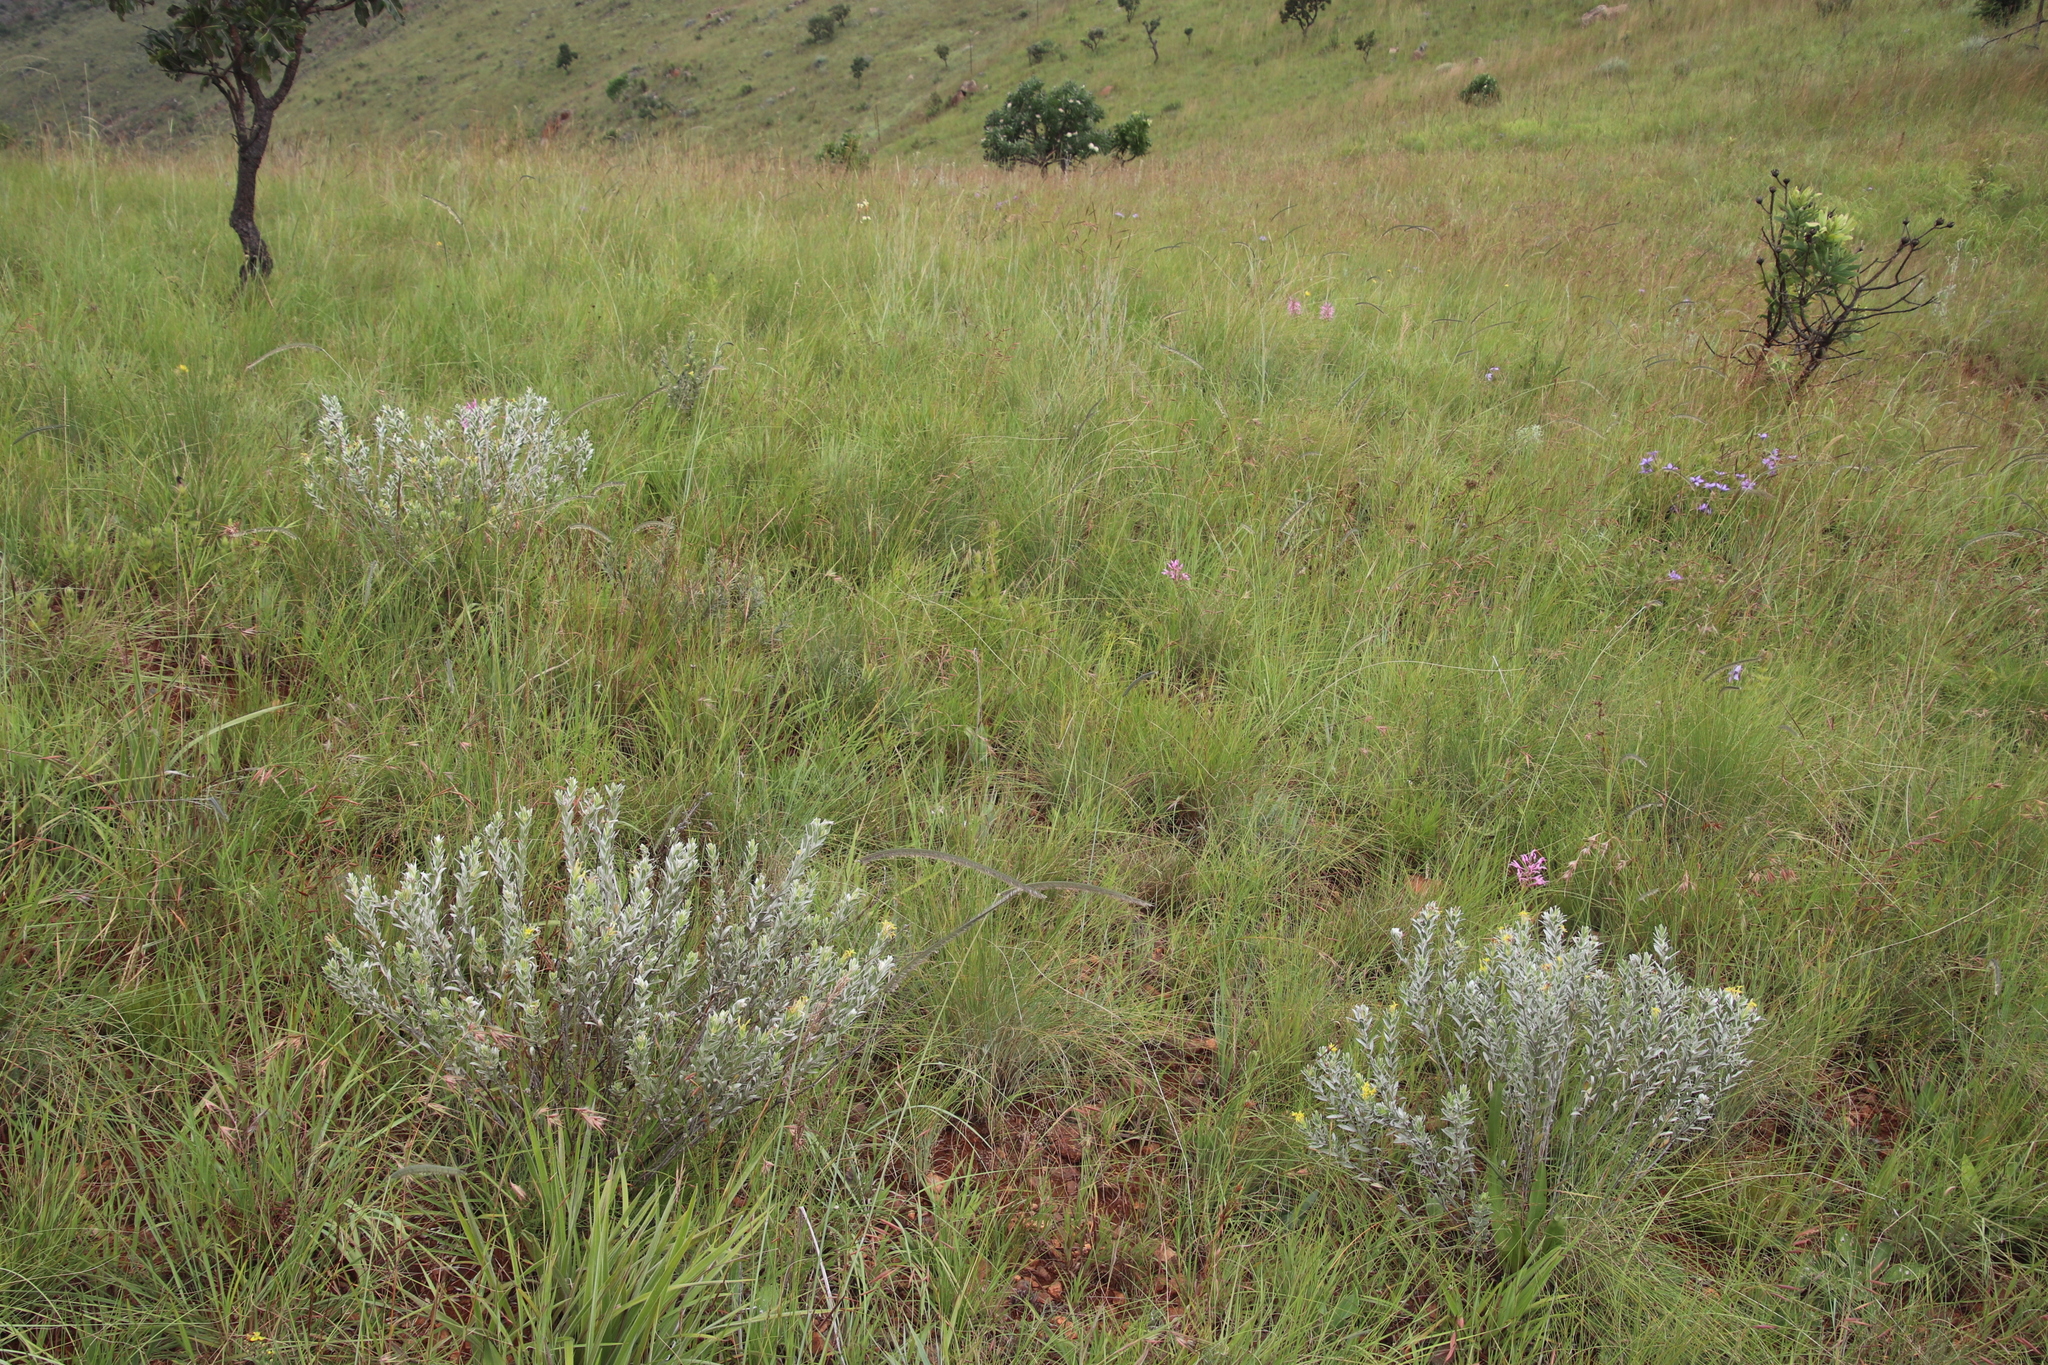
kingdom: Plantae
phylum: Tracheophyta
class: Magnoliopsida
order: Malvales
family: Thymelaeaceae
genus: Gnidia
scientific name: Gnidia splendens
